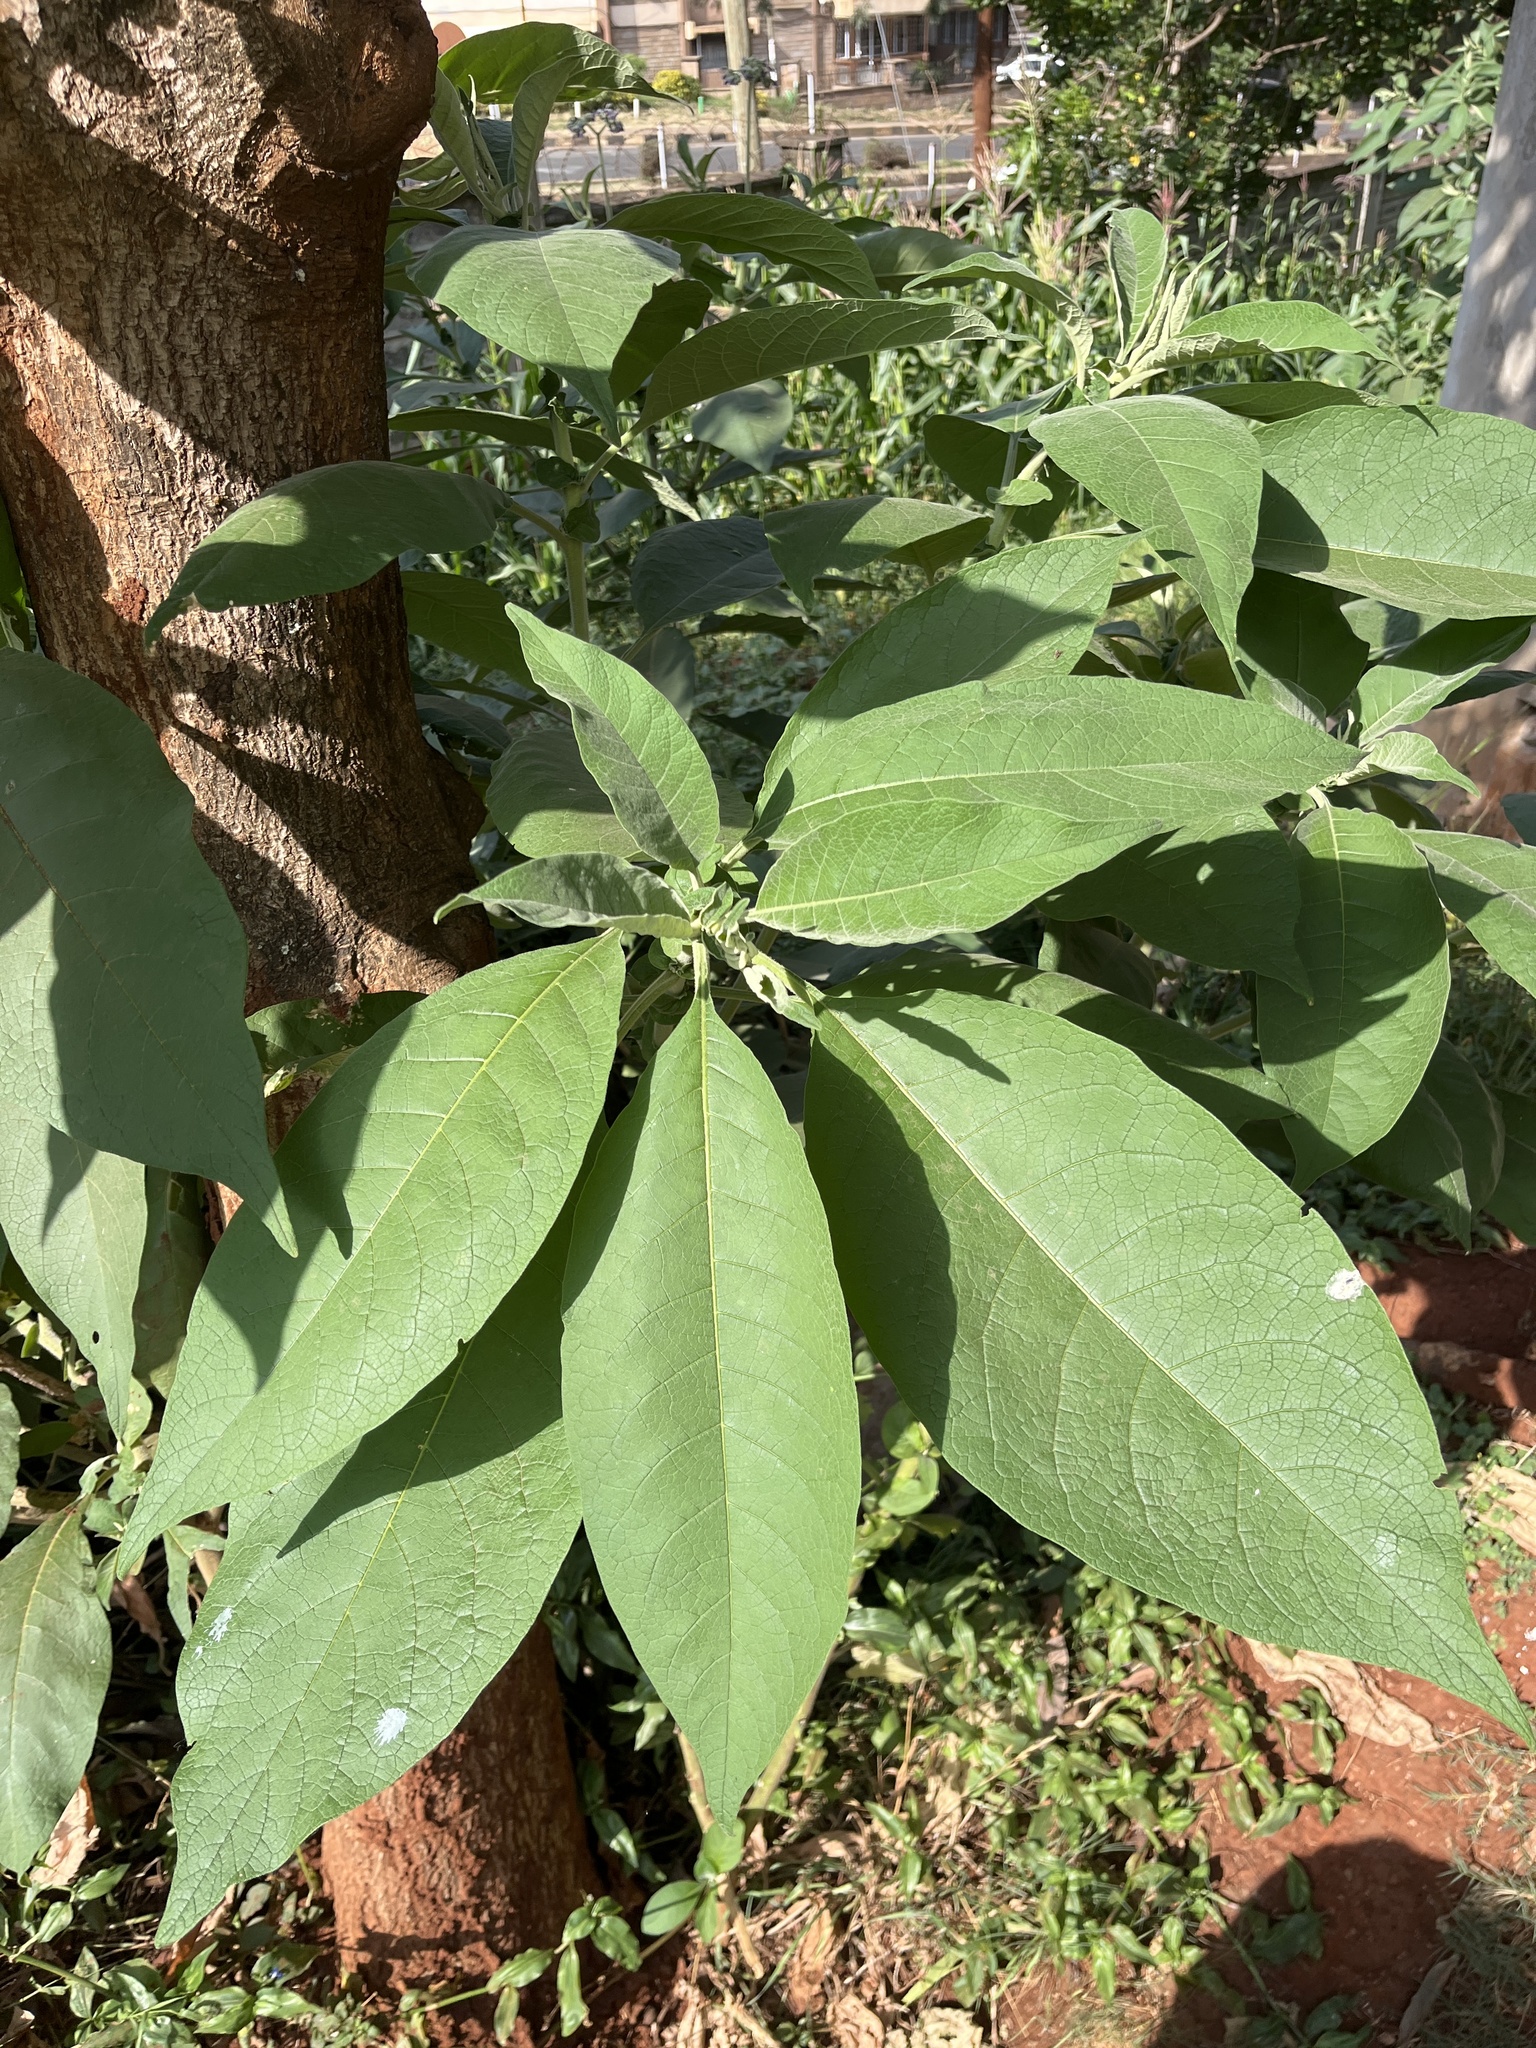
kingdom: Plantae
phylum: Tracheophyta
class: Magnoliopsida
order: Solanales
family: Solanaceae
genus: Solanum
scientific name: Solanum mauritianum
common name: Earleaf nightshade
